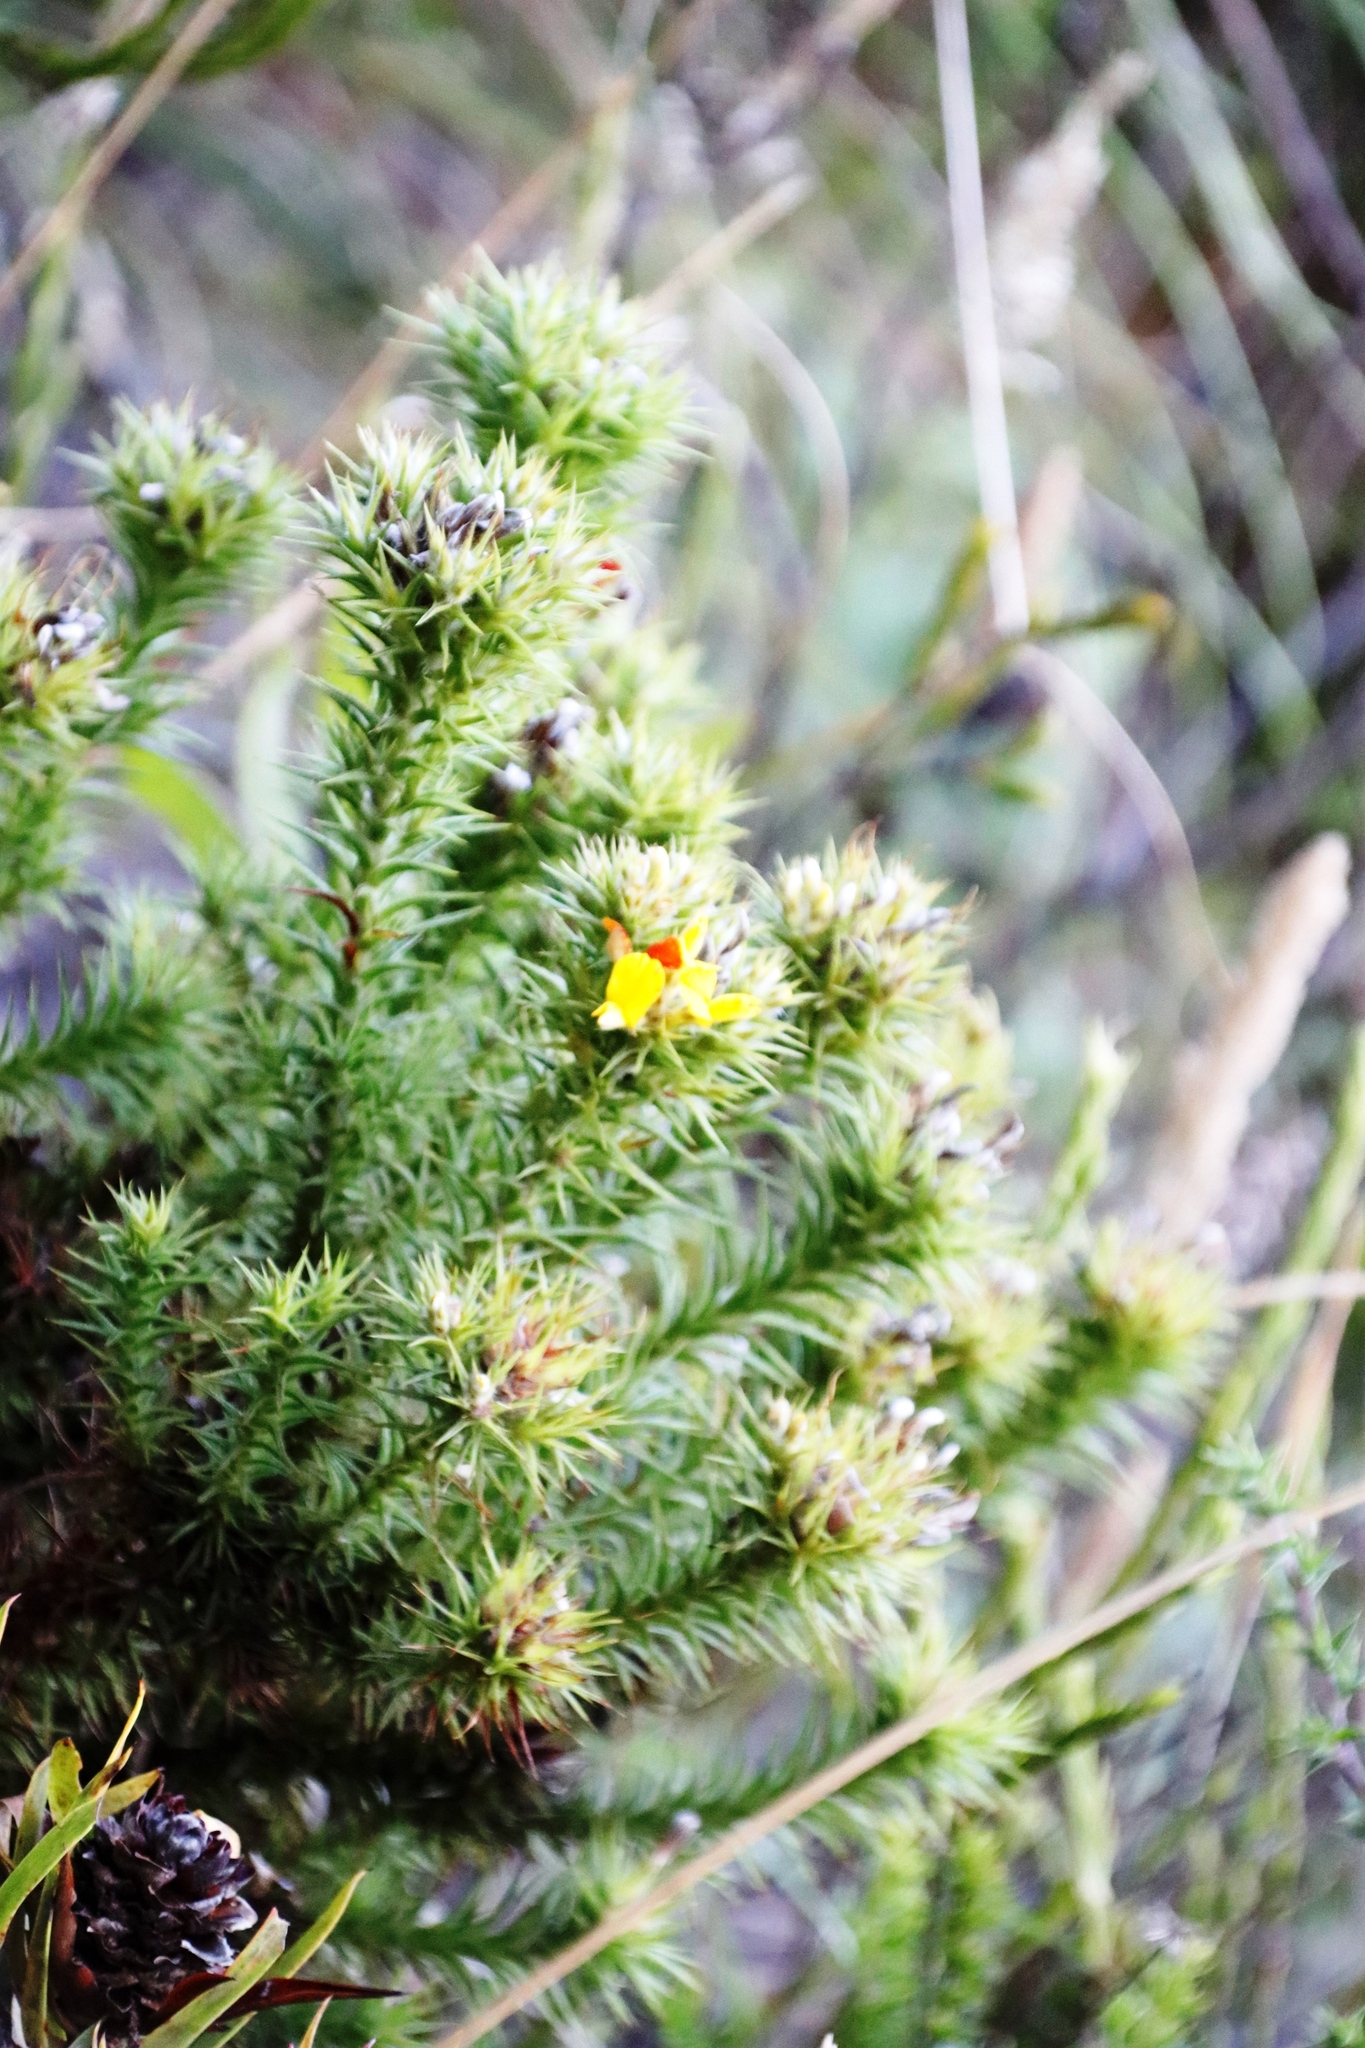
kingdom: Plantae
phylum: Tracheophyta
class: Magnoliopsida
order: Fabales
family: Fabaceae
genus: Aspalathus
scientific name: Aspalathus barbata
